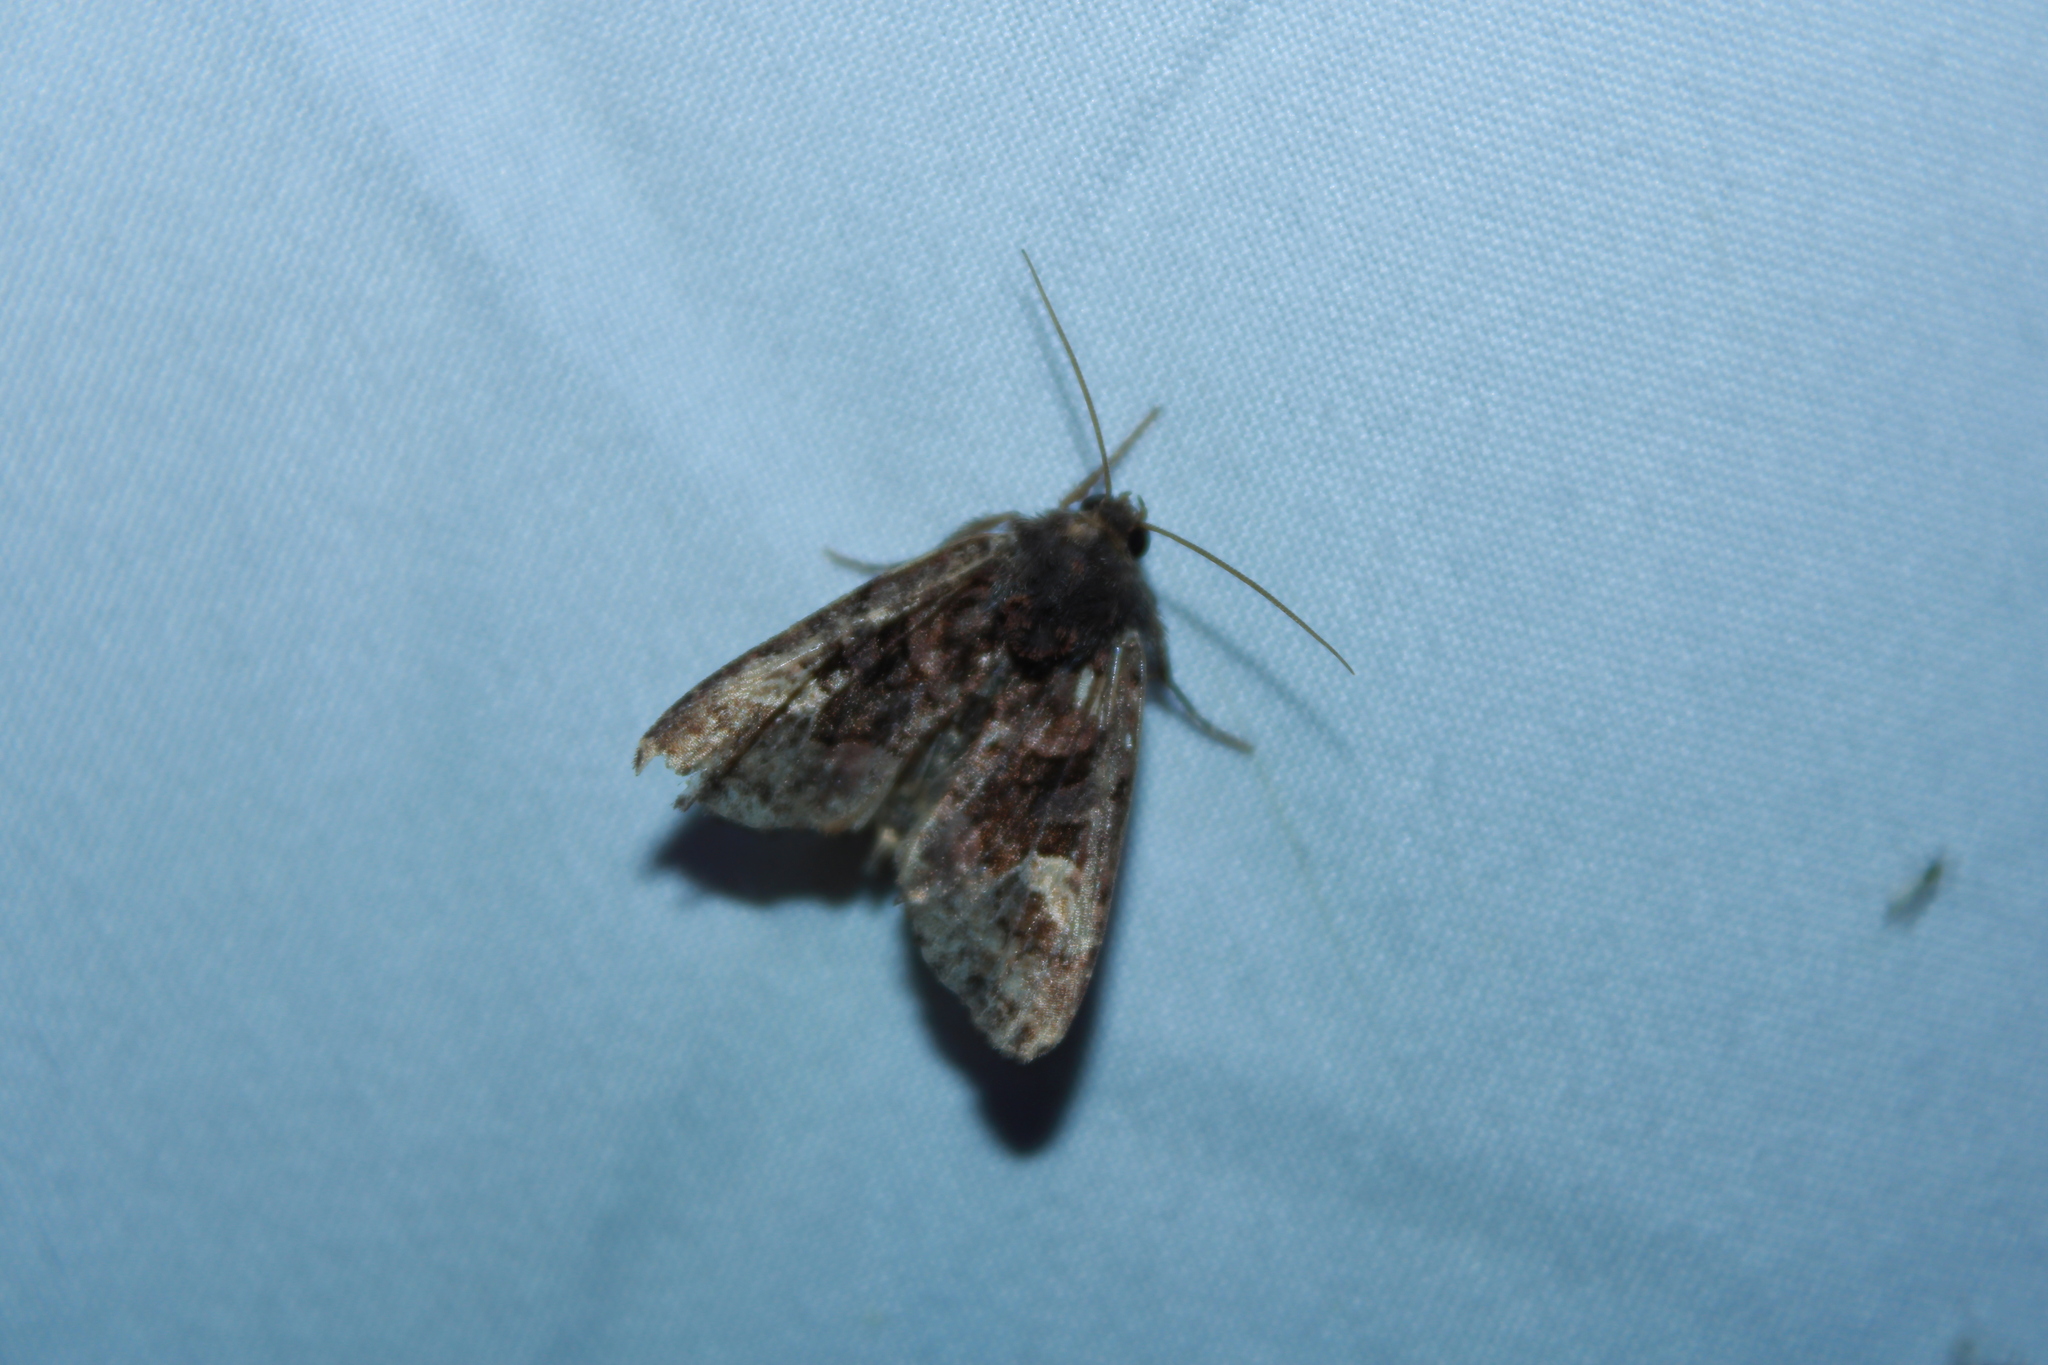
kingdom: Animalia
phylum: Arthropoda
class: Insecta
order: Lepidoptera
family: Noctuidae
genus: Euplexia
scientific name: Euplexia benesimilis
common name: American angle shades
